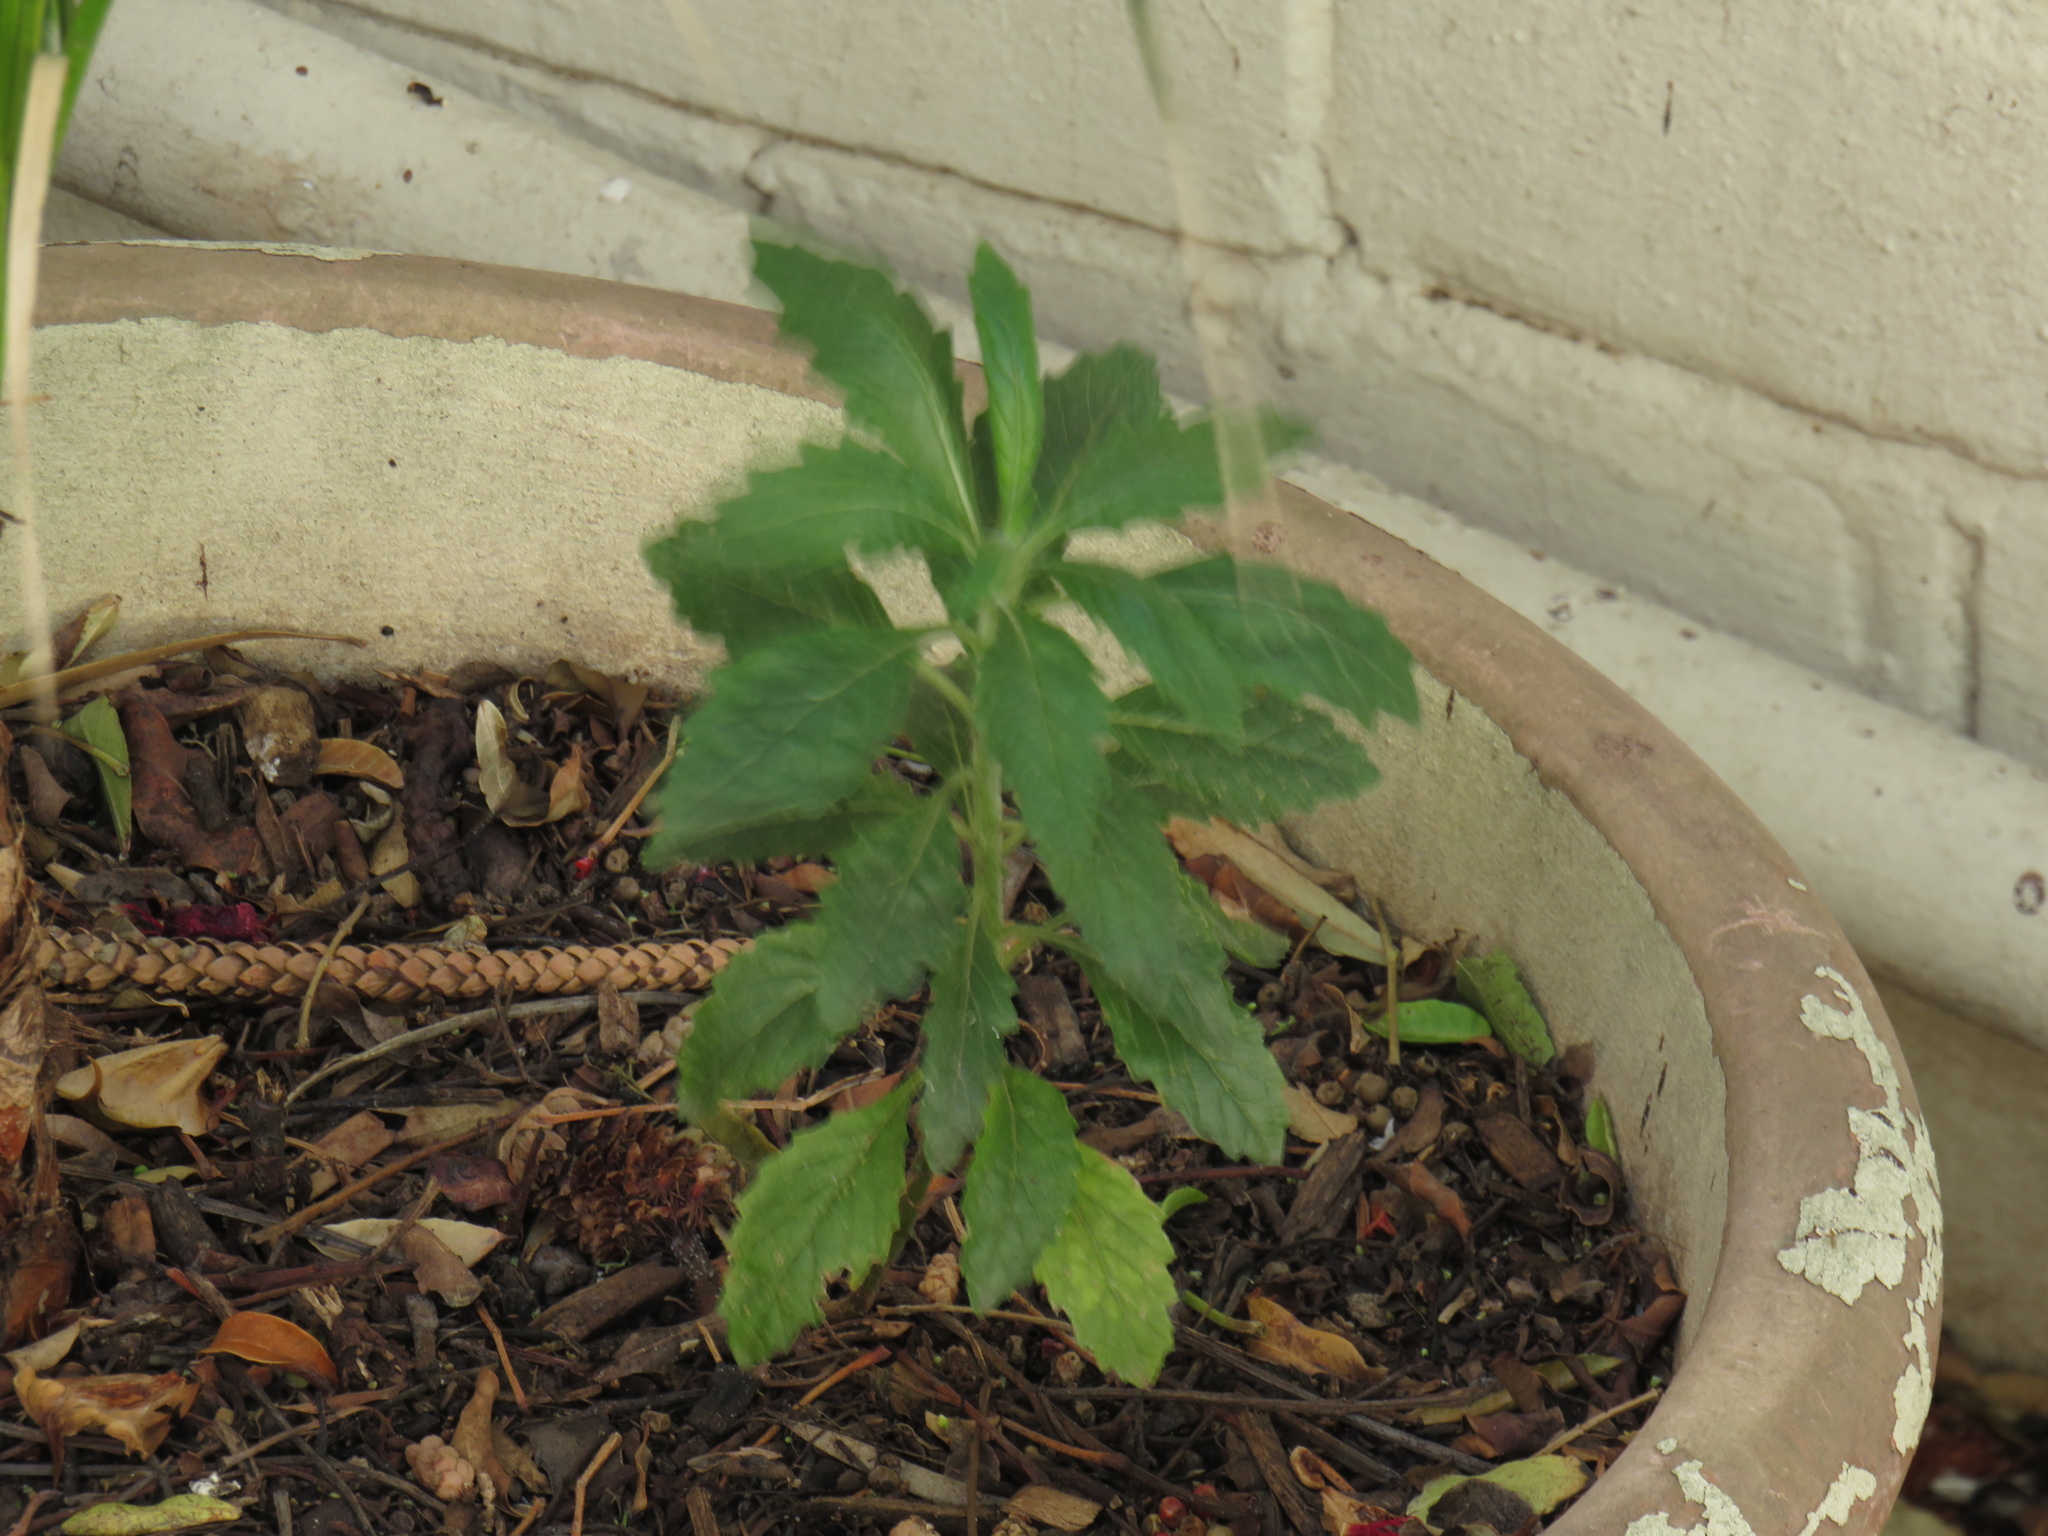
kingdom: Plantae
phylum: Tracheophyta
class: Magnoliopsida
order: Asterales
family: Asteraceae
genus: Senecio
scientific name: Senecio pterophorus
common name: Shoddy ragwort
